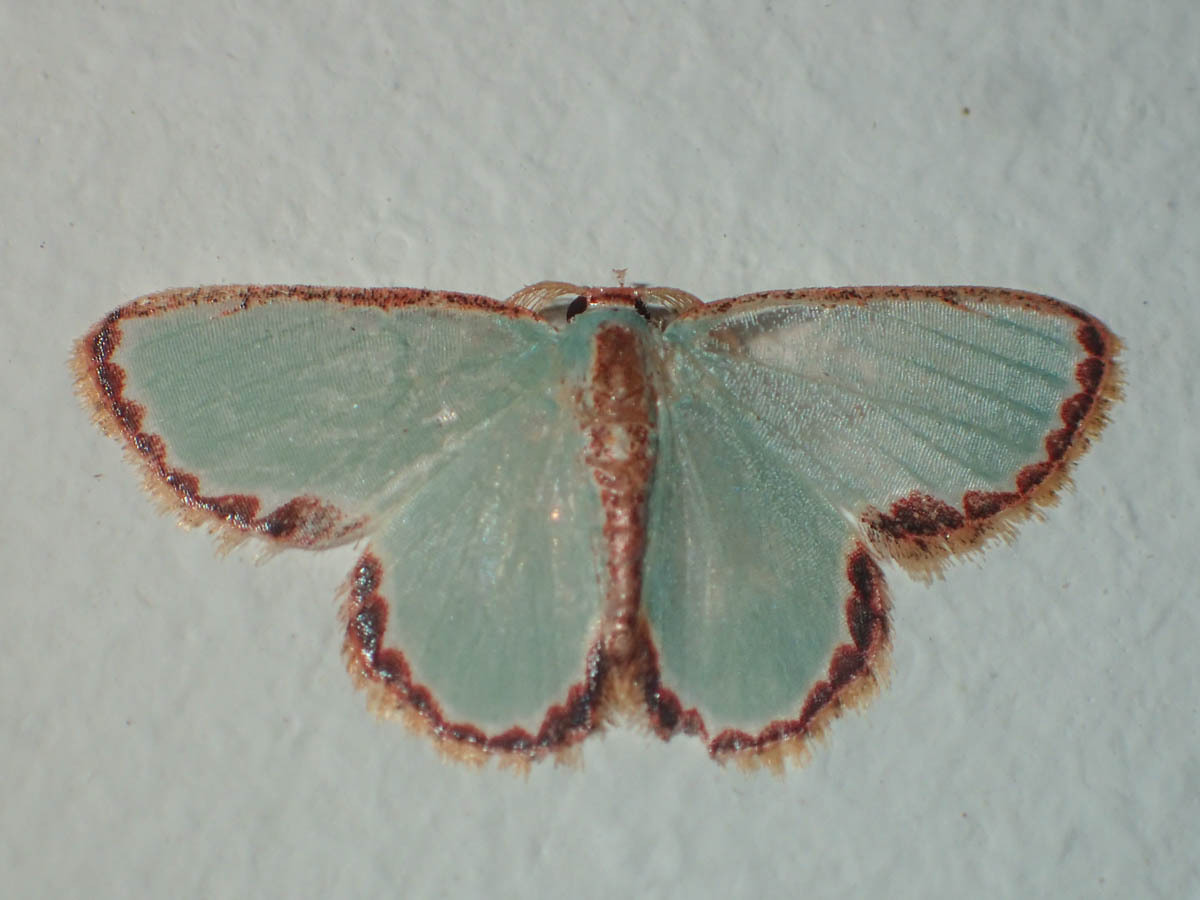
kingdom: Animalia
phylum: Arthropoda
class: Insecta
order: Lepidoptera
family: Geometridae
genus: Comostola
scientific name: Comostola turgescens
